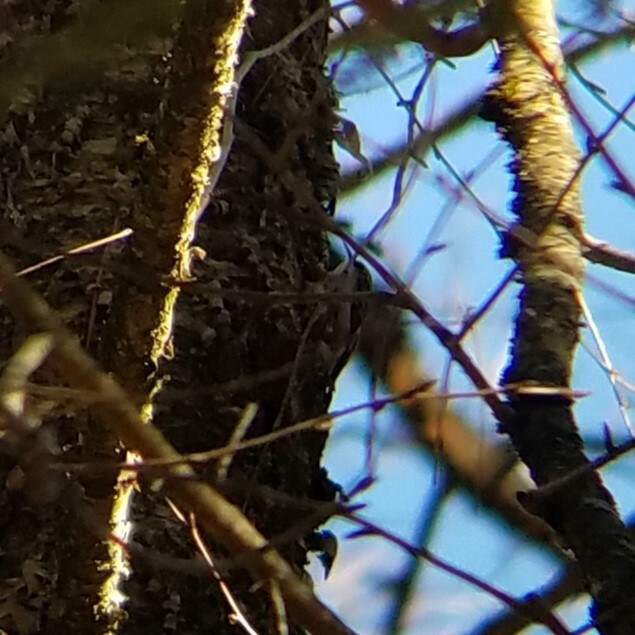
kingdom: Animalia
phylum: Chordata
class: Aves
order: Passeriformes
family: Certhiidae
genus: Certhia
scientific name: Certhia americana
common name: Brown creeper
